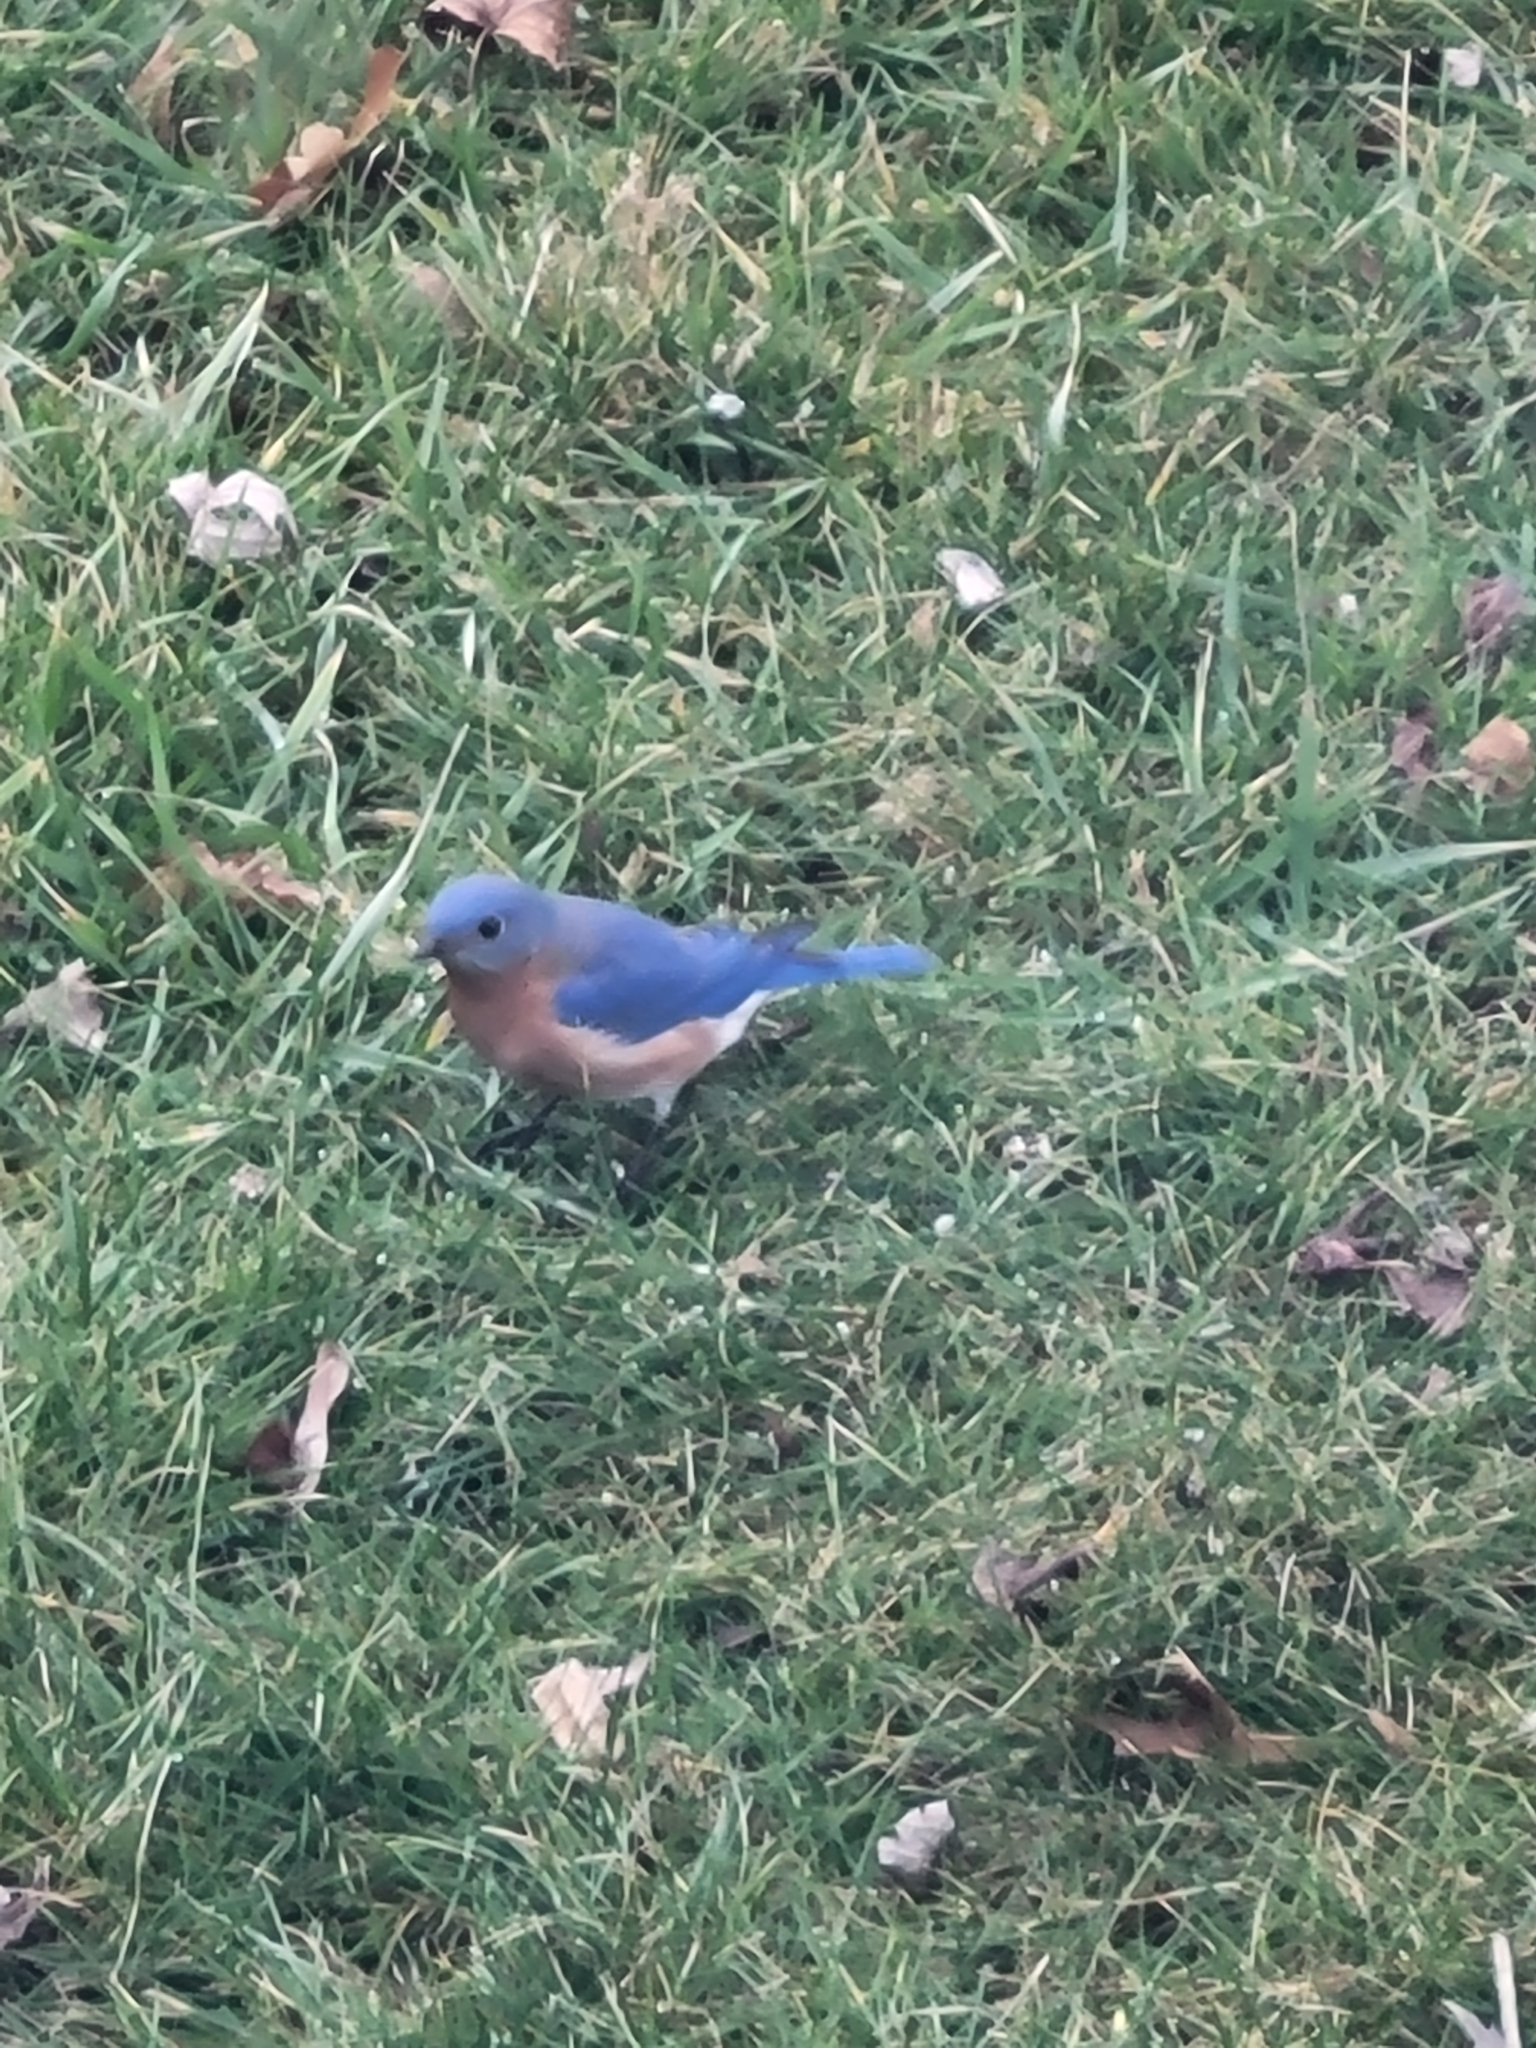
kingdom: Animalia
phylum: Chordata
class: Aves
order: Passeriformes
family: Turdidae
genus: Sialia
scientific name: Sialia sialis
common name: Eastern bluebird
